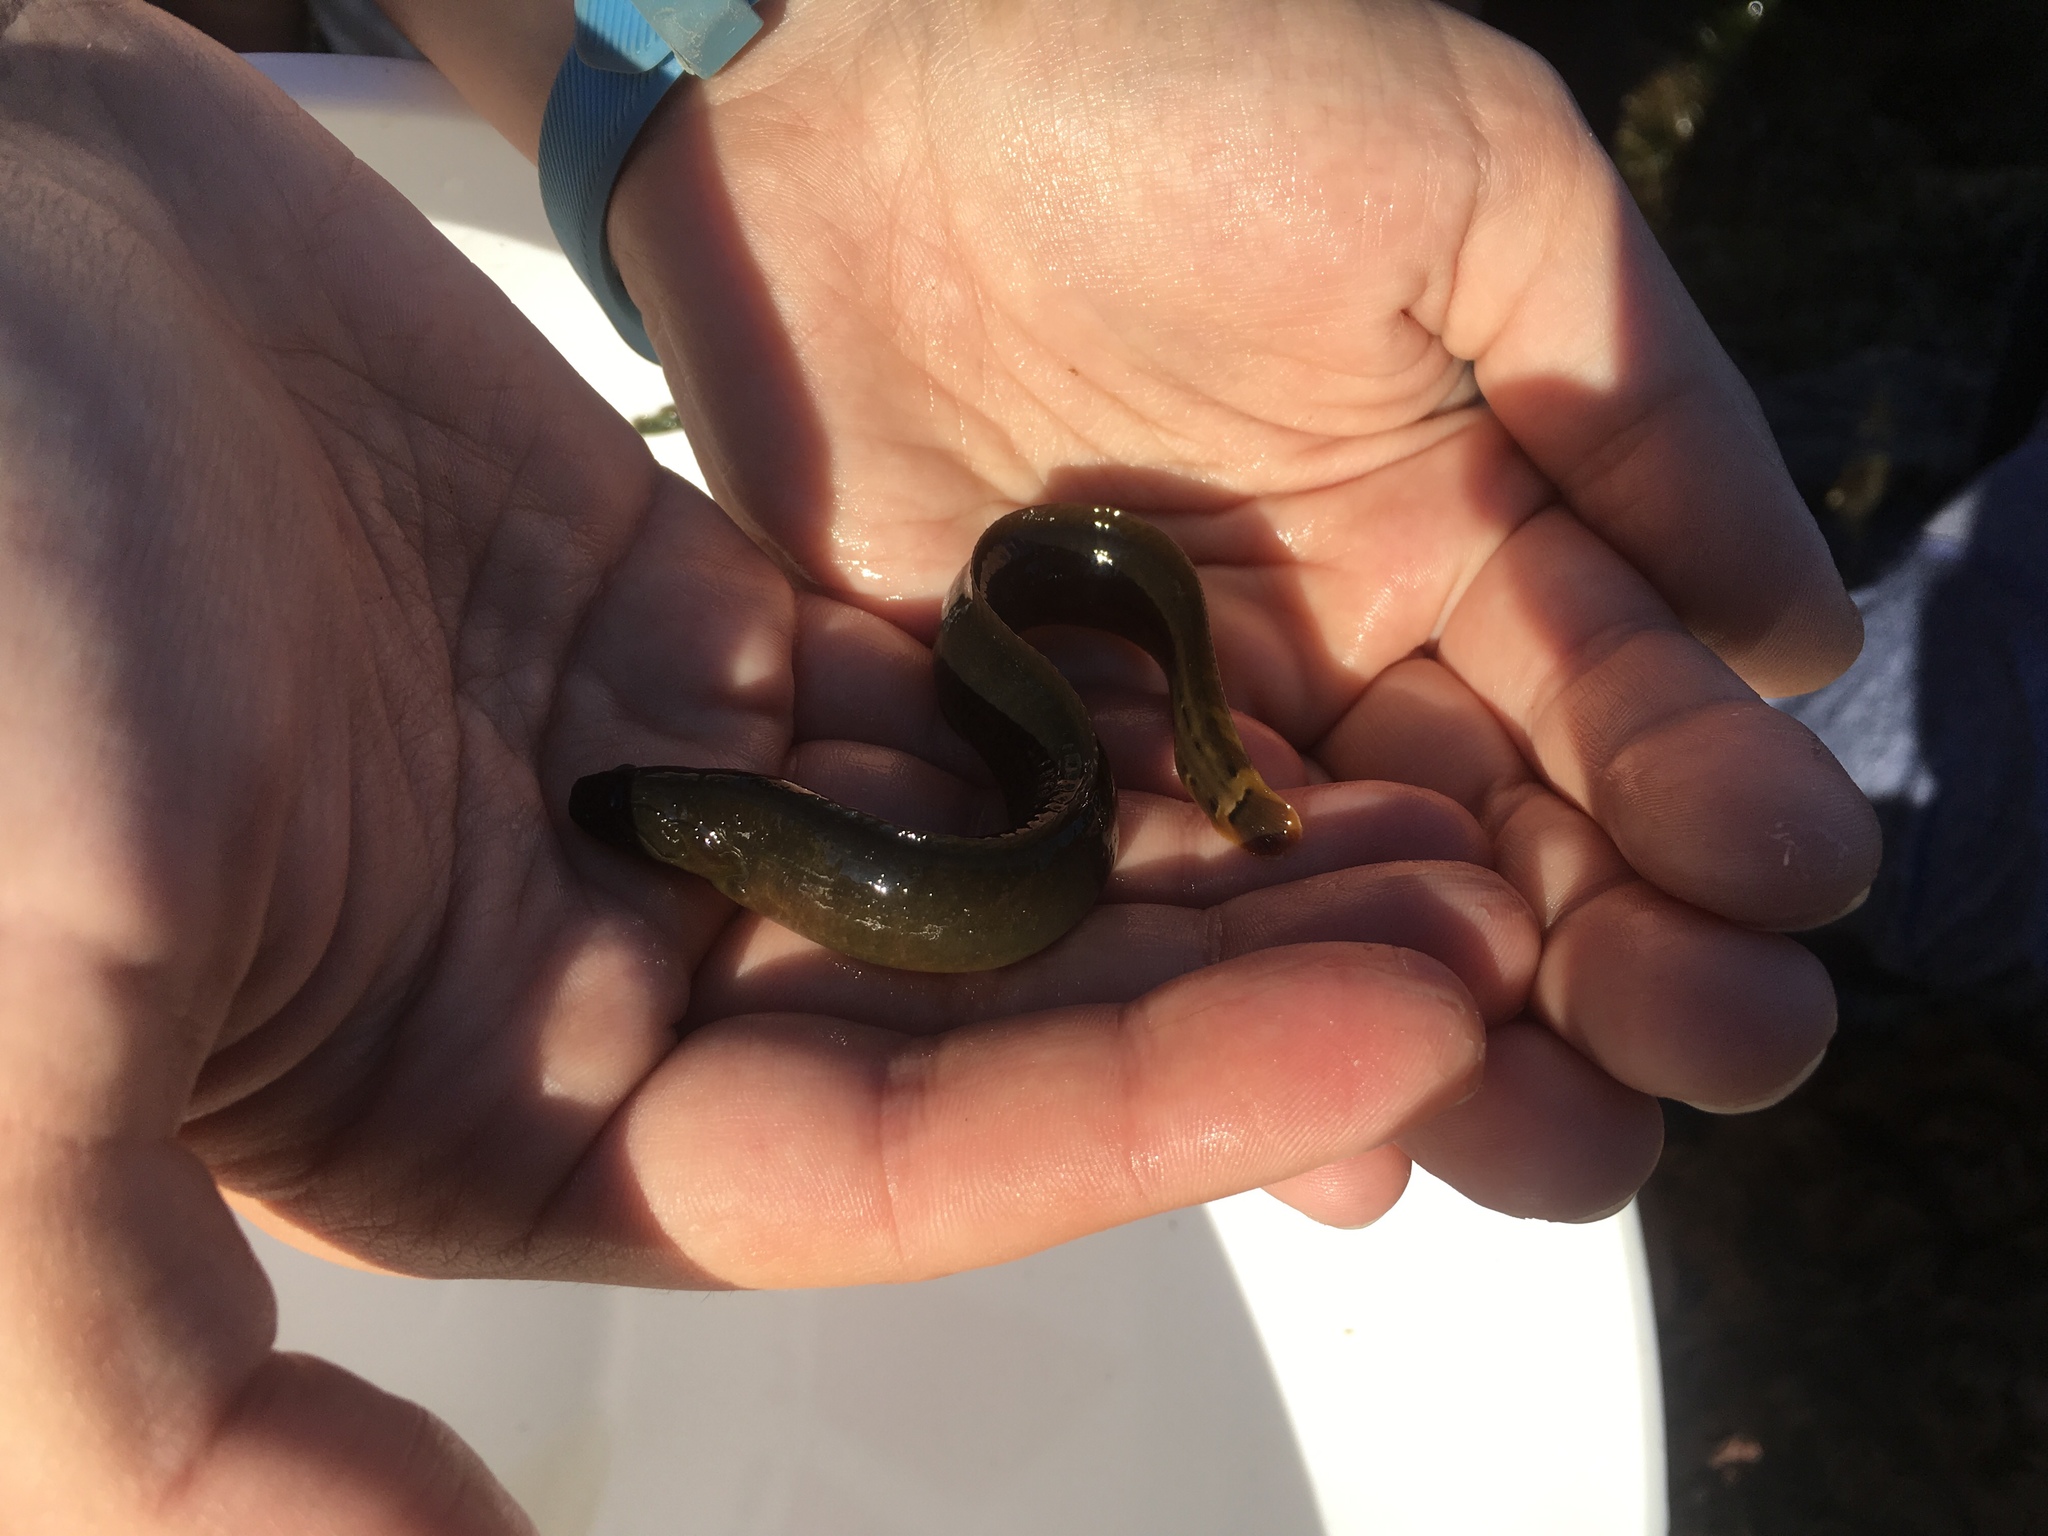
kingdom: Animalia
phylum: Chordata
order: Perciformes
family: Stichaeidae
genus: Xiphister
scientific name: Xiphister atropurpureus
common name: Black prickleback
